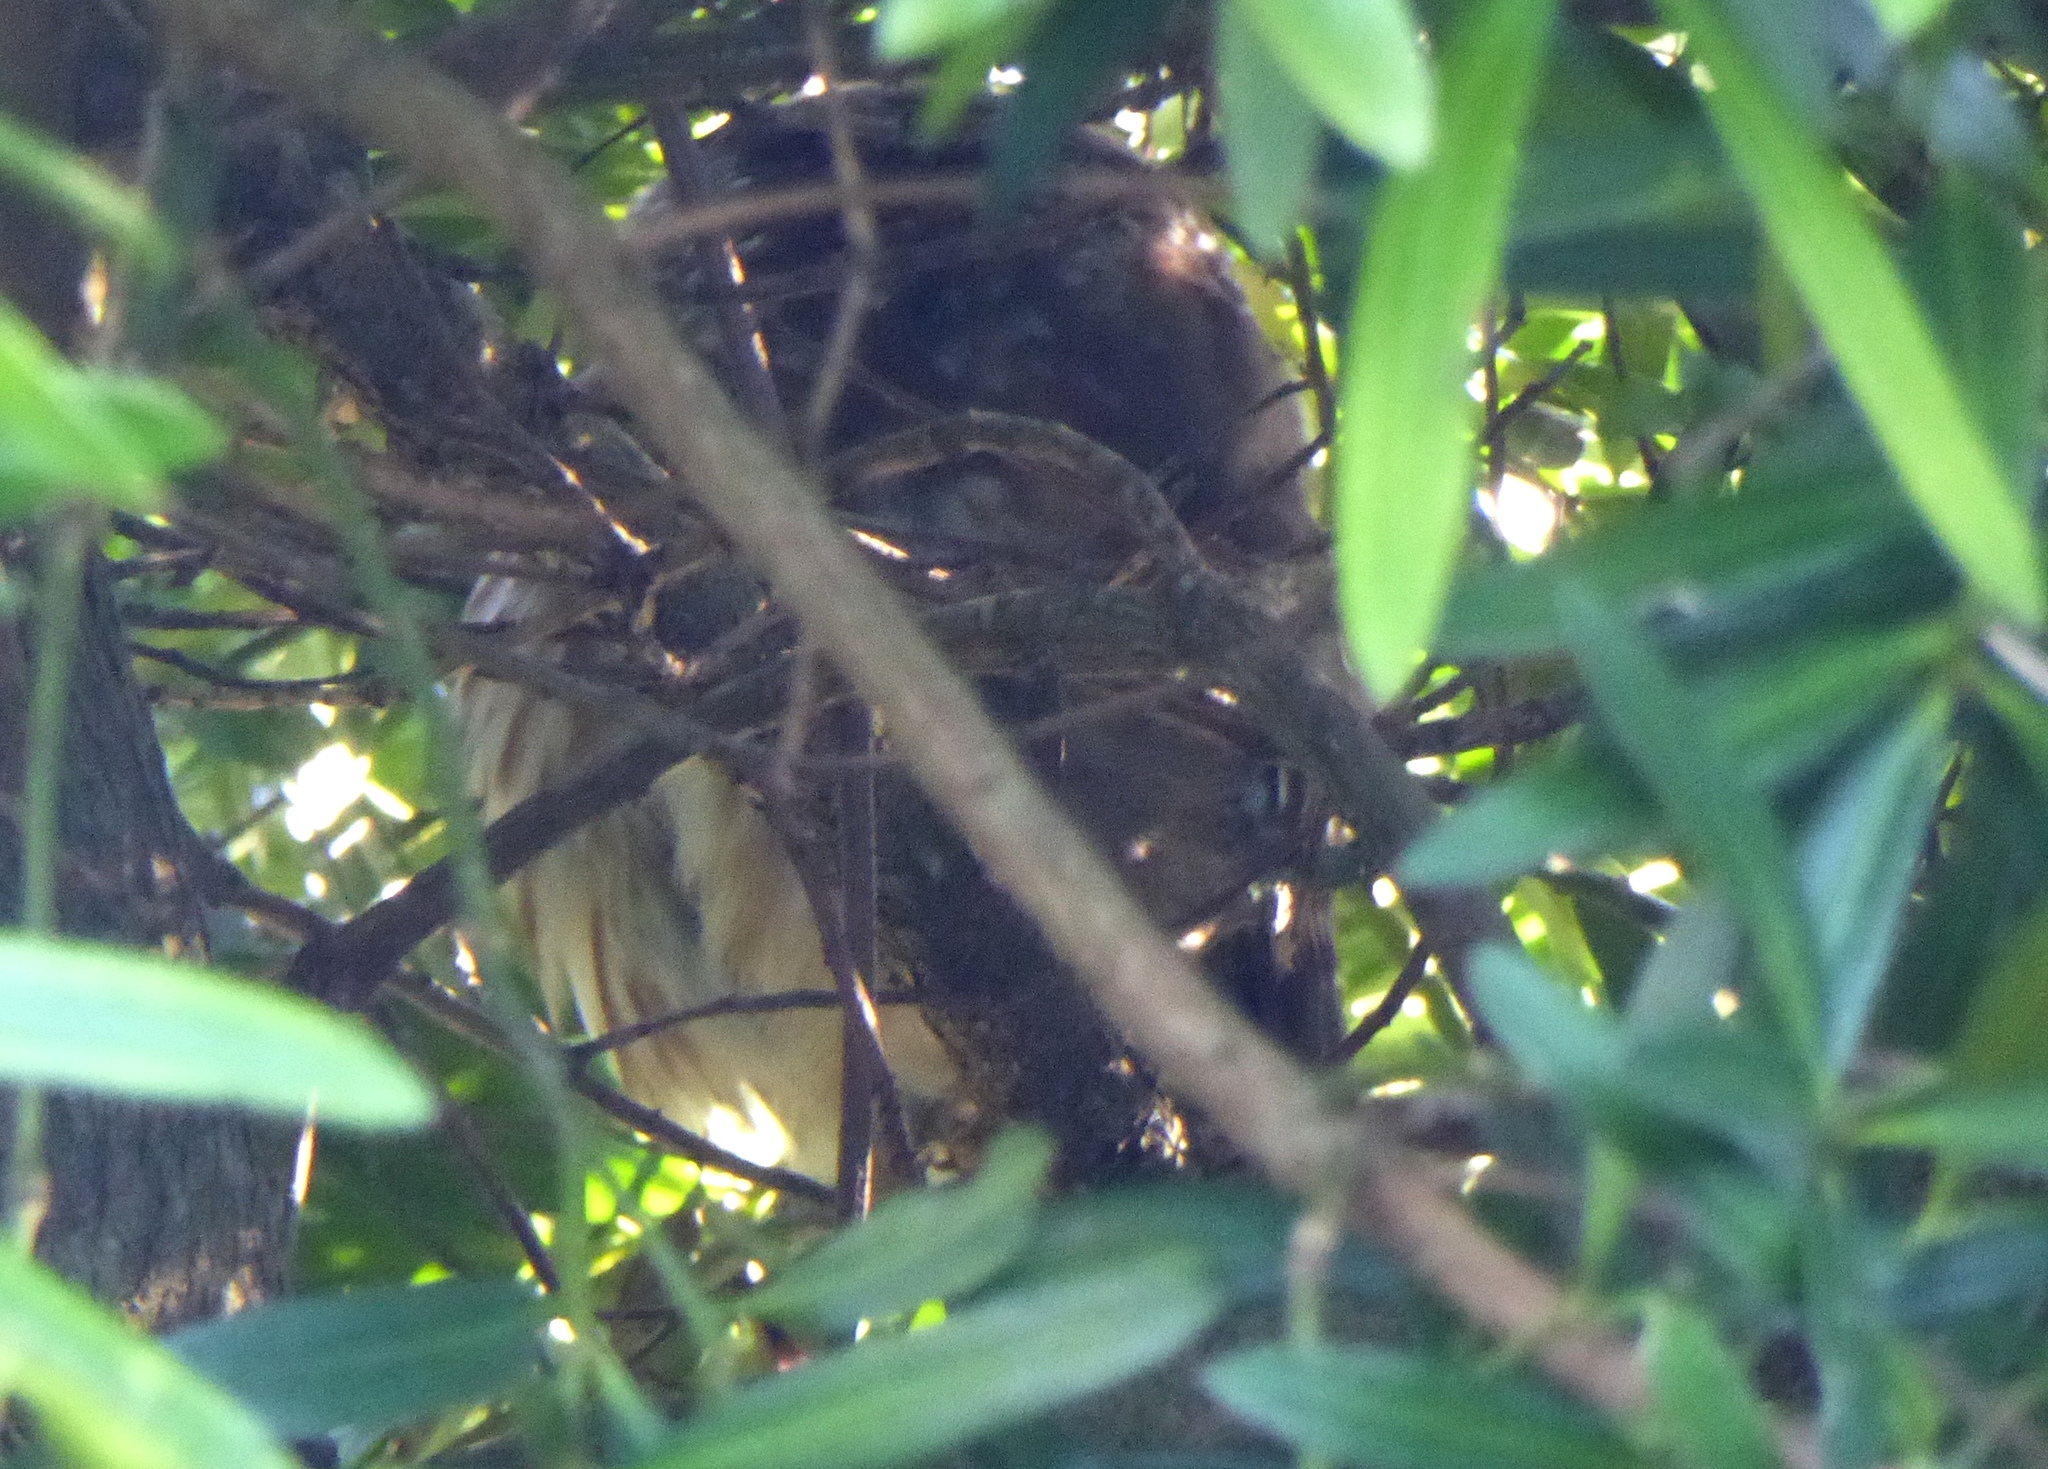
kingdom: Animalia
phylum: Chordata
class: Aves
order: Strigiformes
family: Strigidae
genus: Aegolius
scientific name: Aegolius acadicus
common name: Northern saw-whet owl
